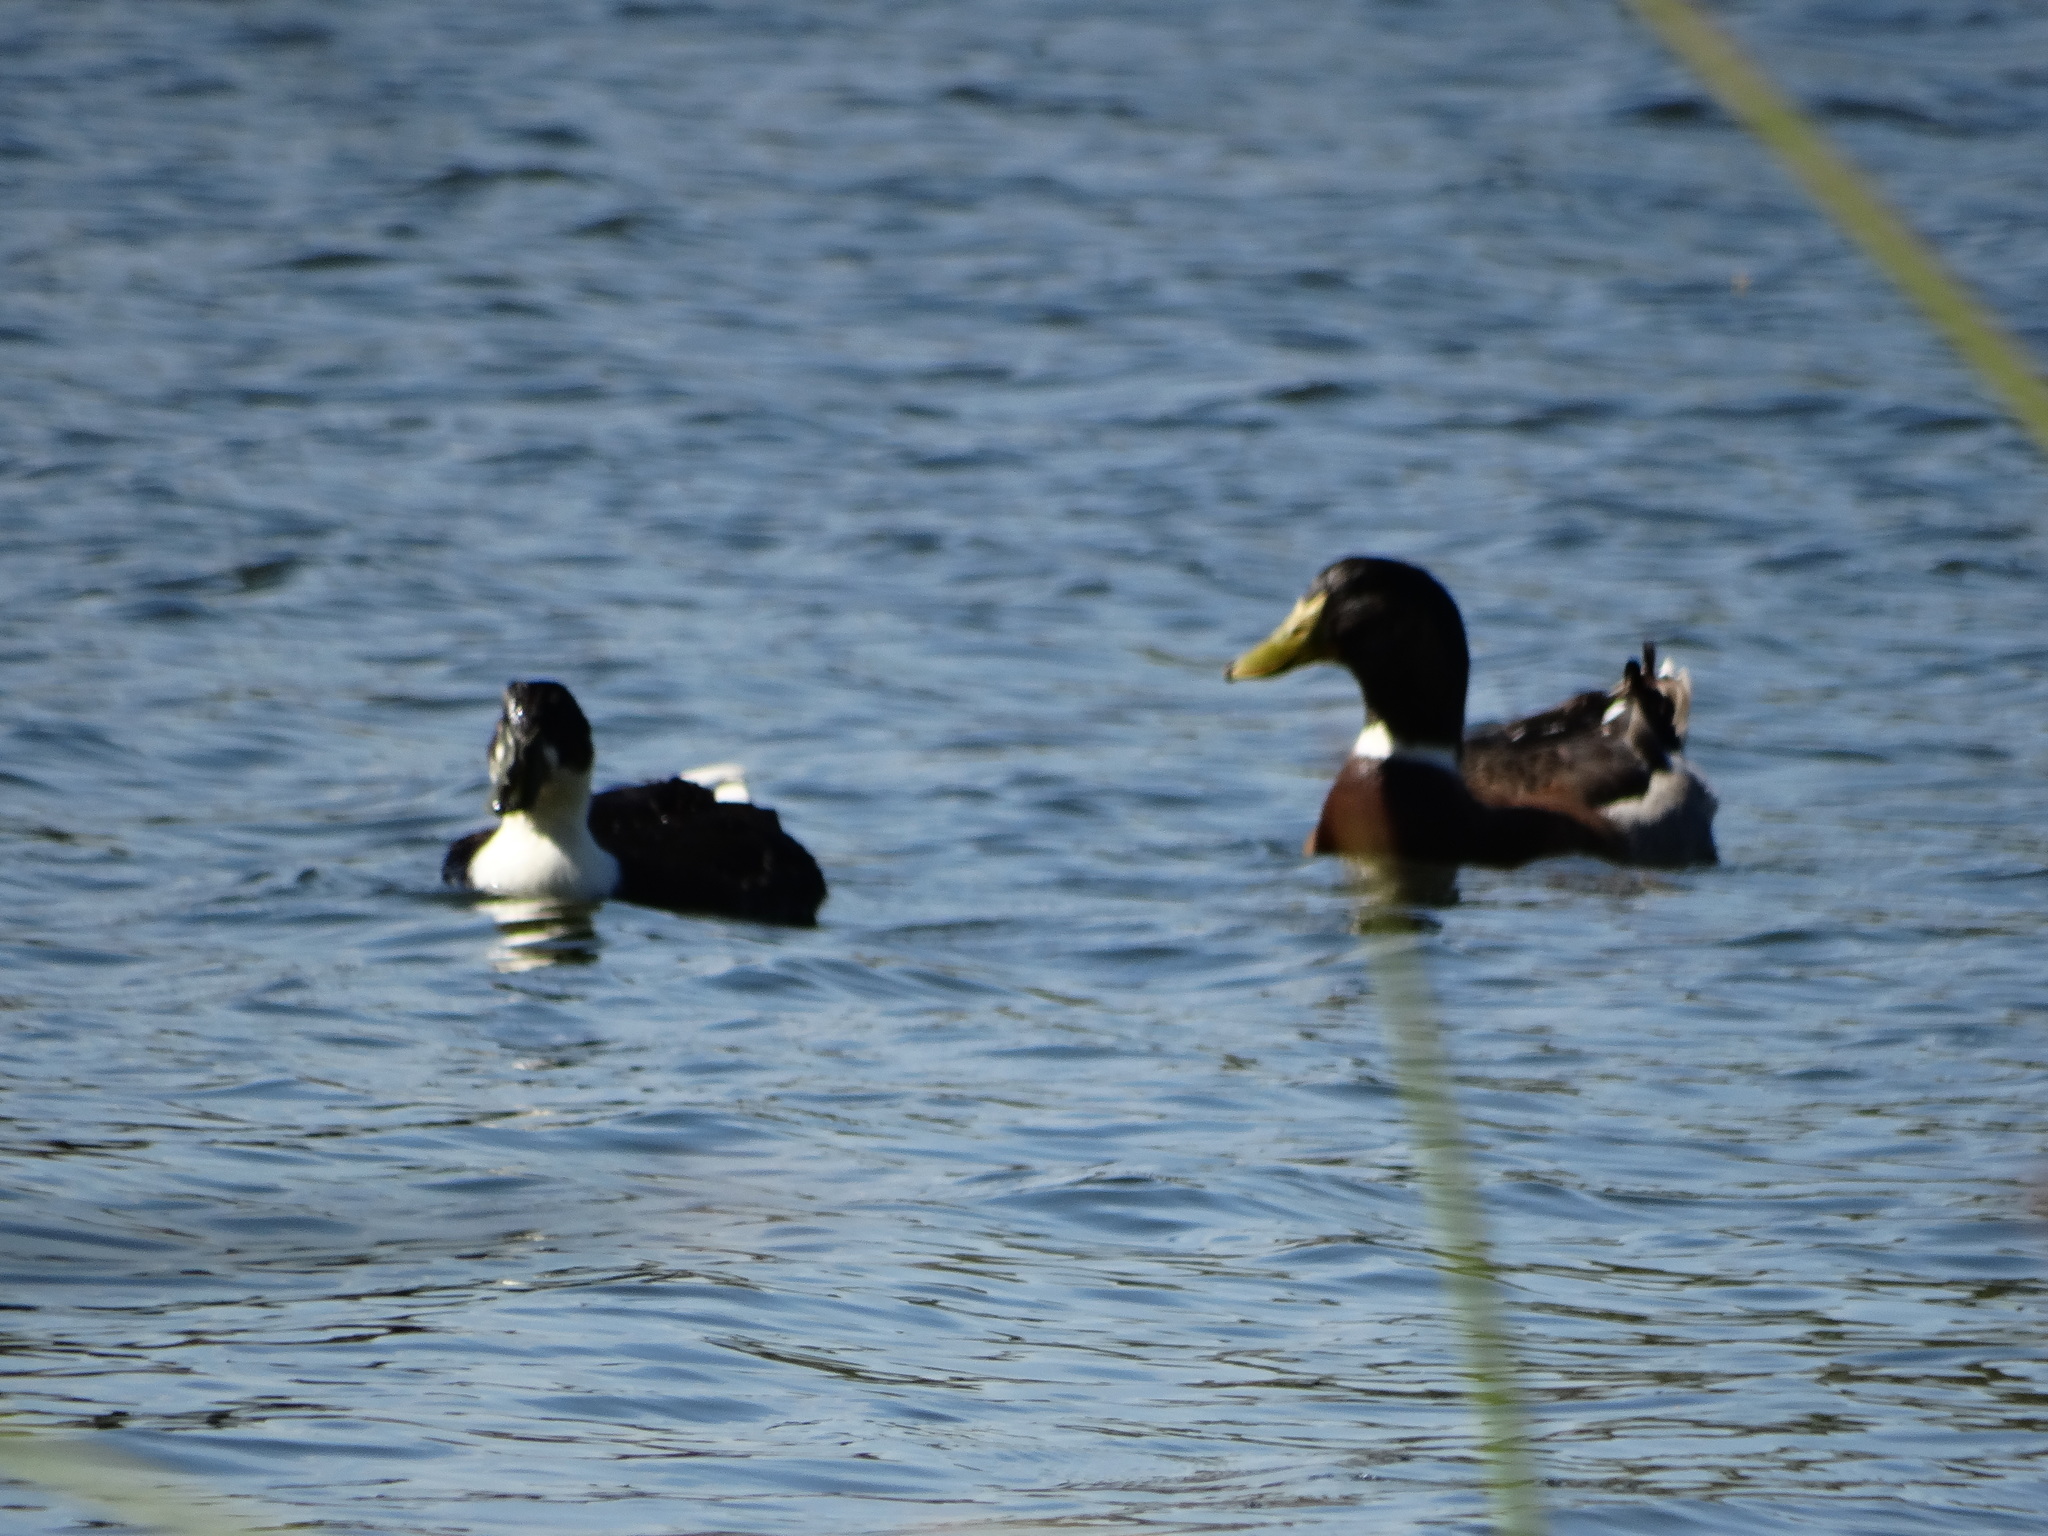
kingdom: Animalia
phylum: Chordata
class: Aves
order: Anseriformes
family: Anatidae
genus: Anas
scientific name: Anas platyrhynchos
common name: Mallard
